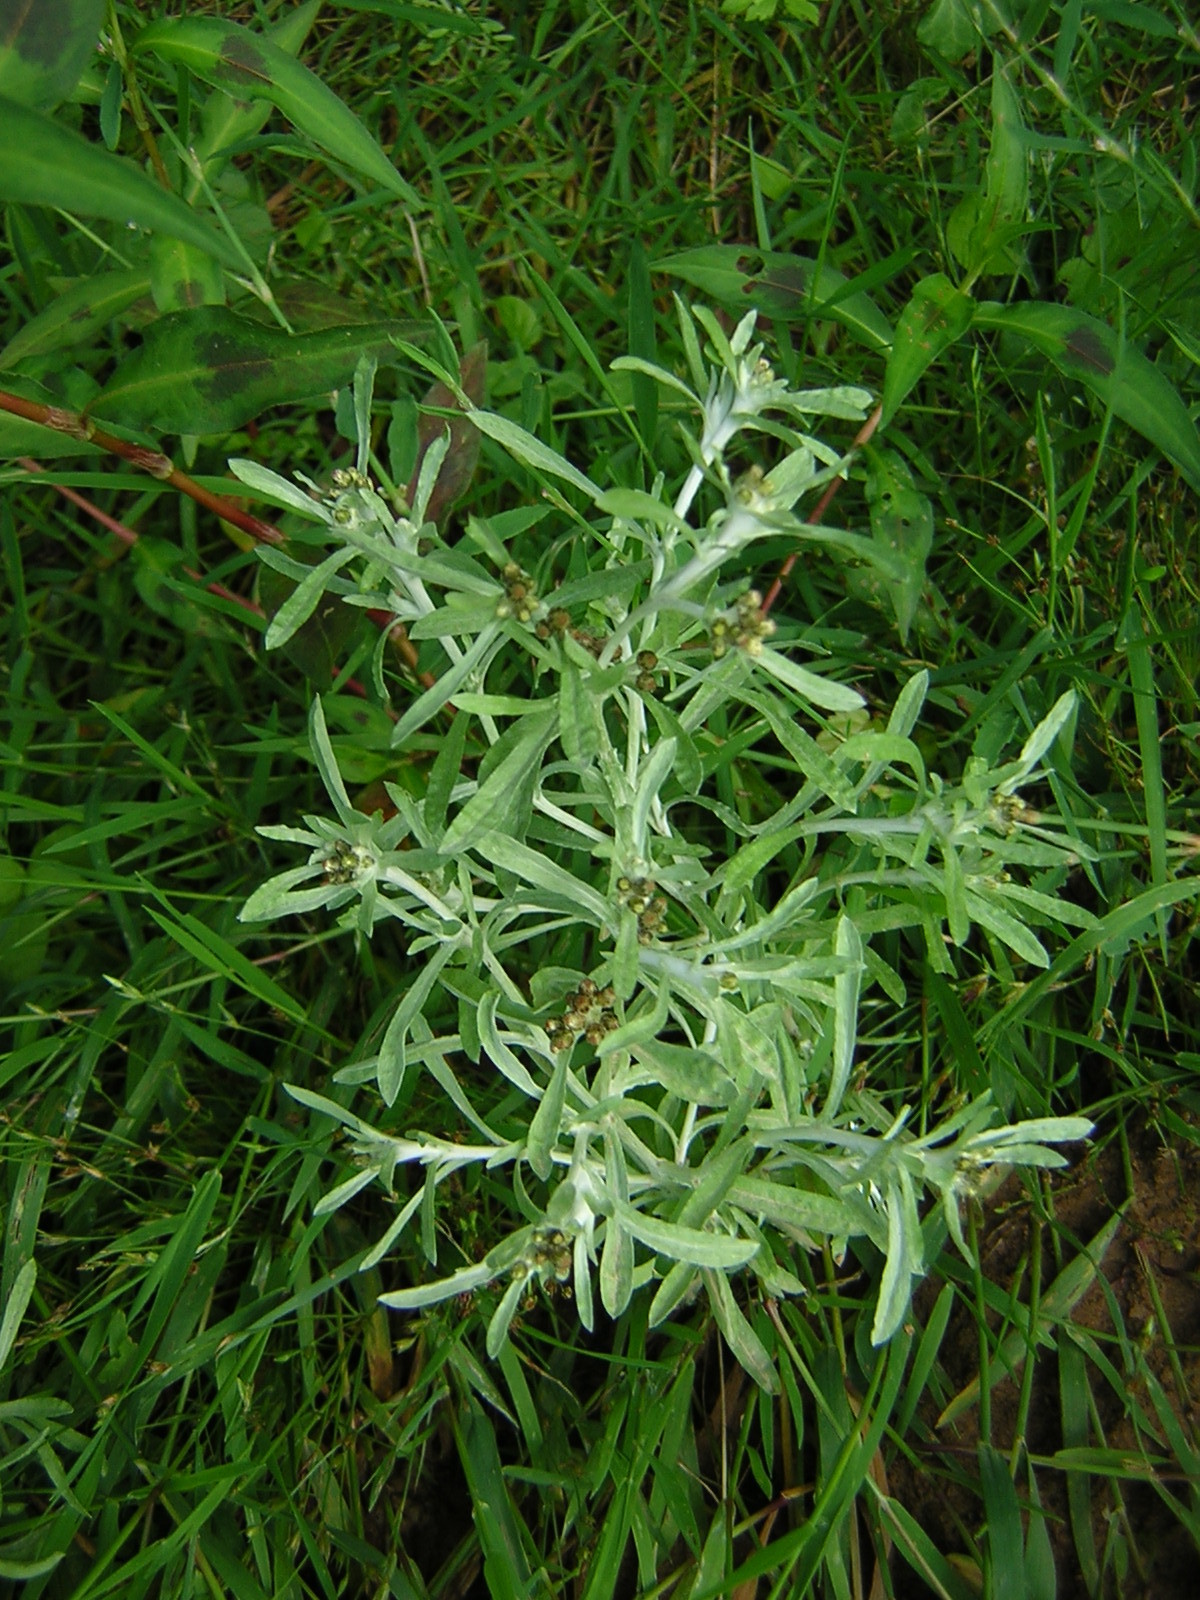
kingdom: Plantae
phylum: Tracheophyta
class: Magnoliopsida
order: Asterales
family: Asteraceae
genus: Gnaphalium
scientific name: Gnaphalium uliginosum
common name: Marsh cudweed
